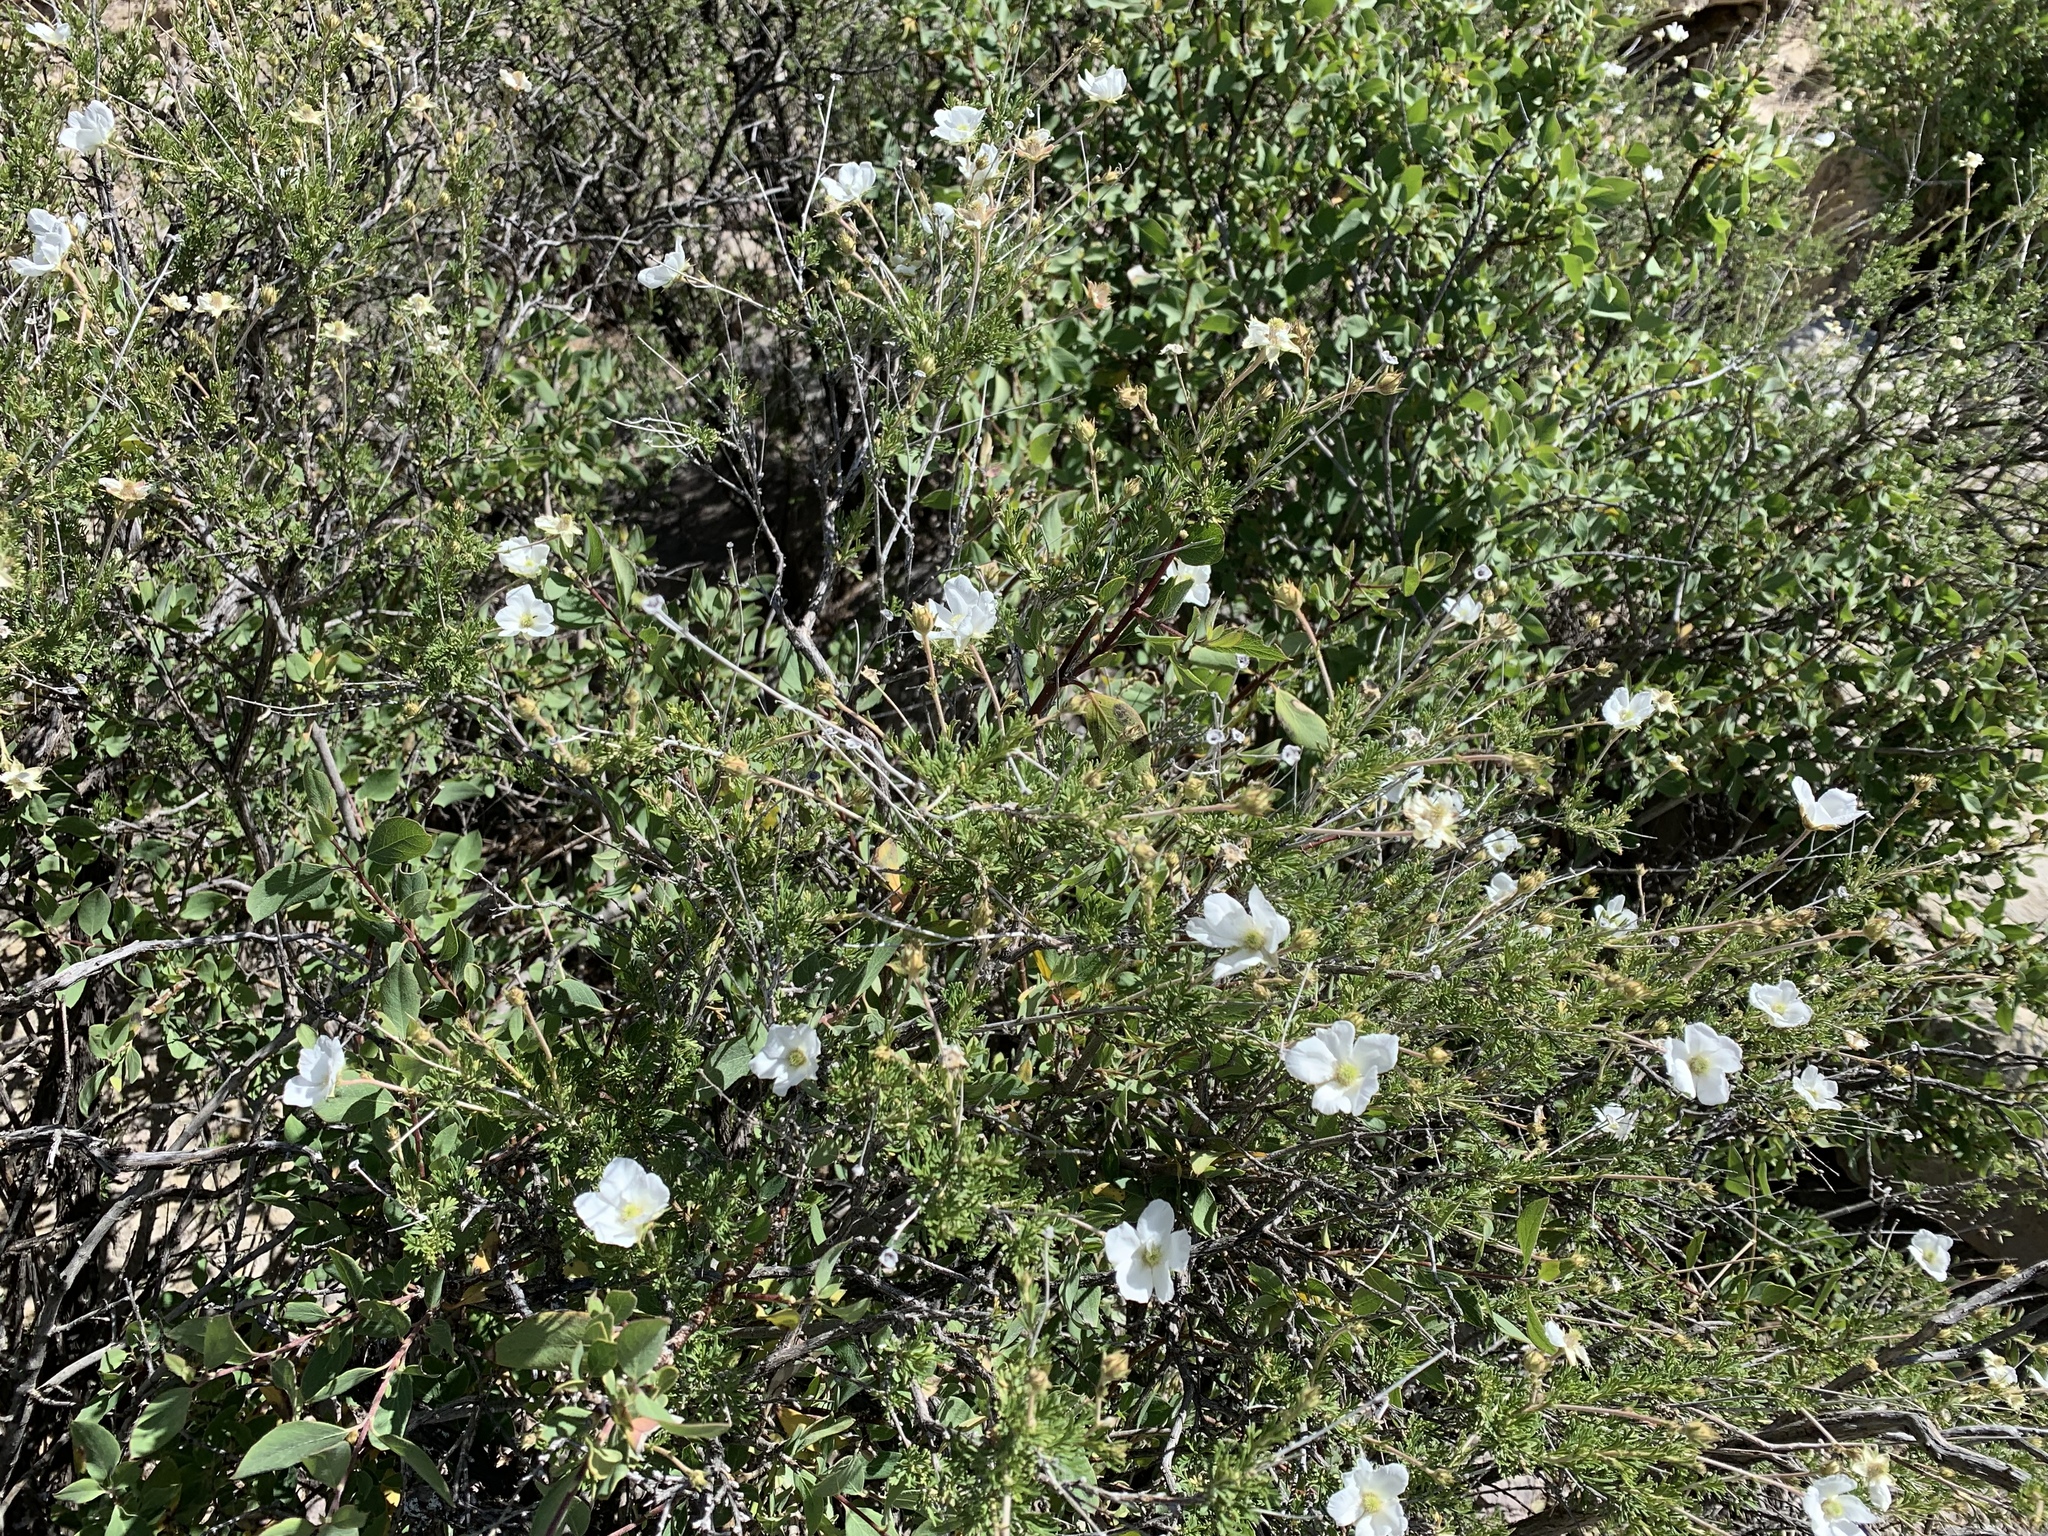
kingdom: Plantae
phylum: Tracheophyta
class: Magnoliopsida
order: Rosales
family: Rosaceae
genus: Fallugia
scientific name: Fallugia paradoxa
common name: Apache-plume
